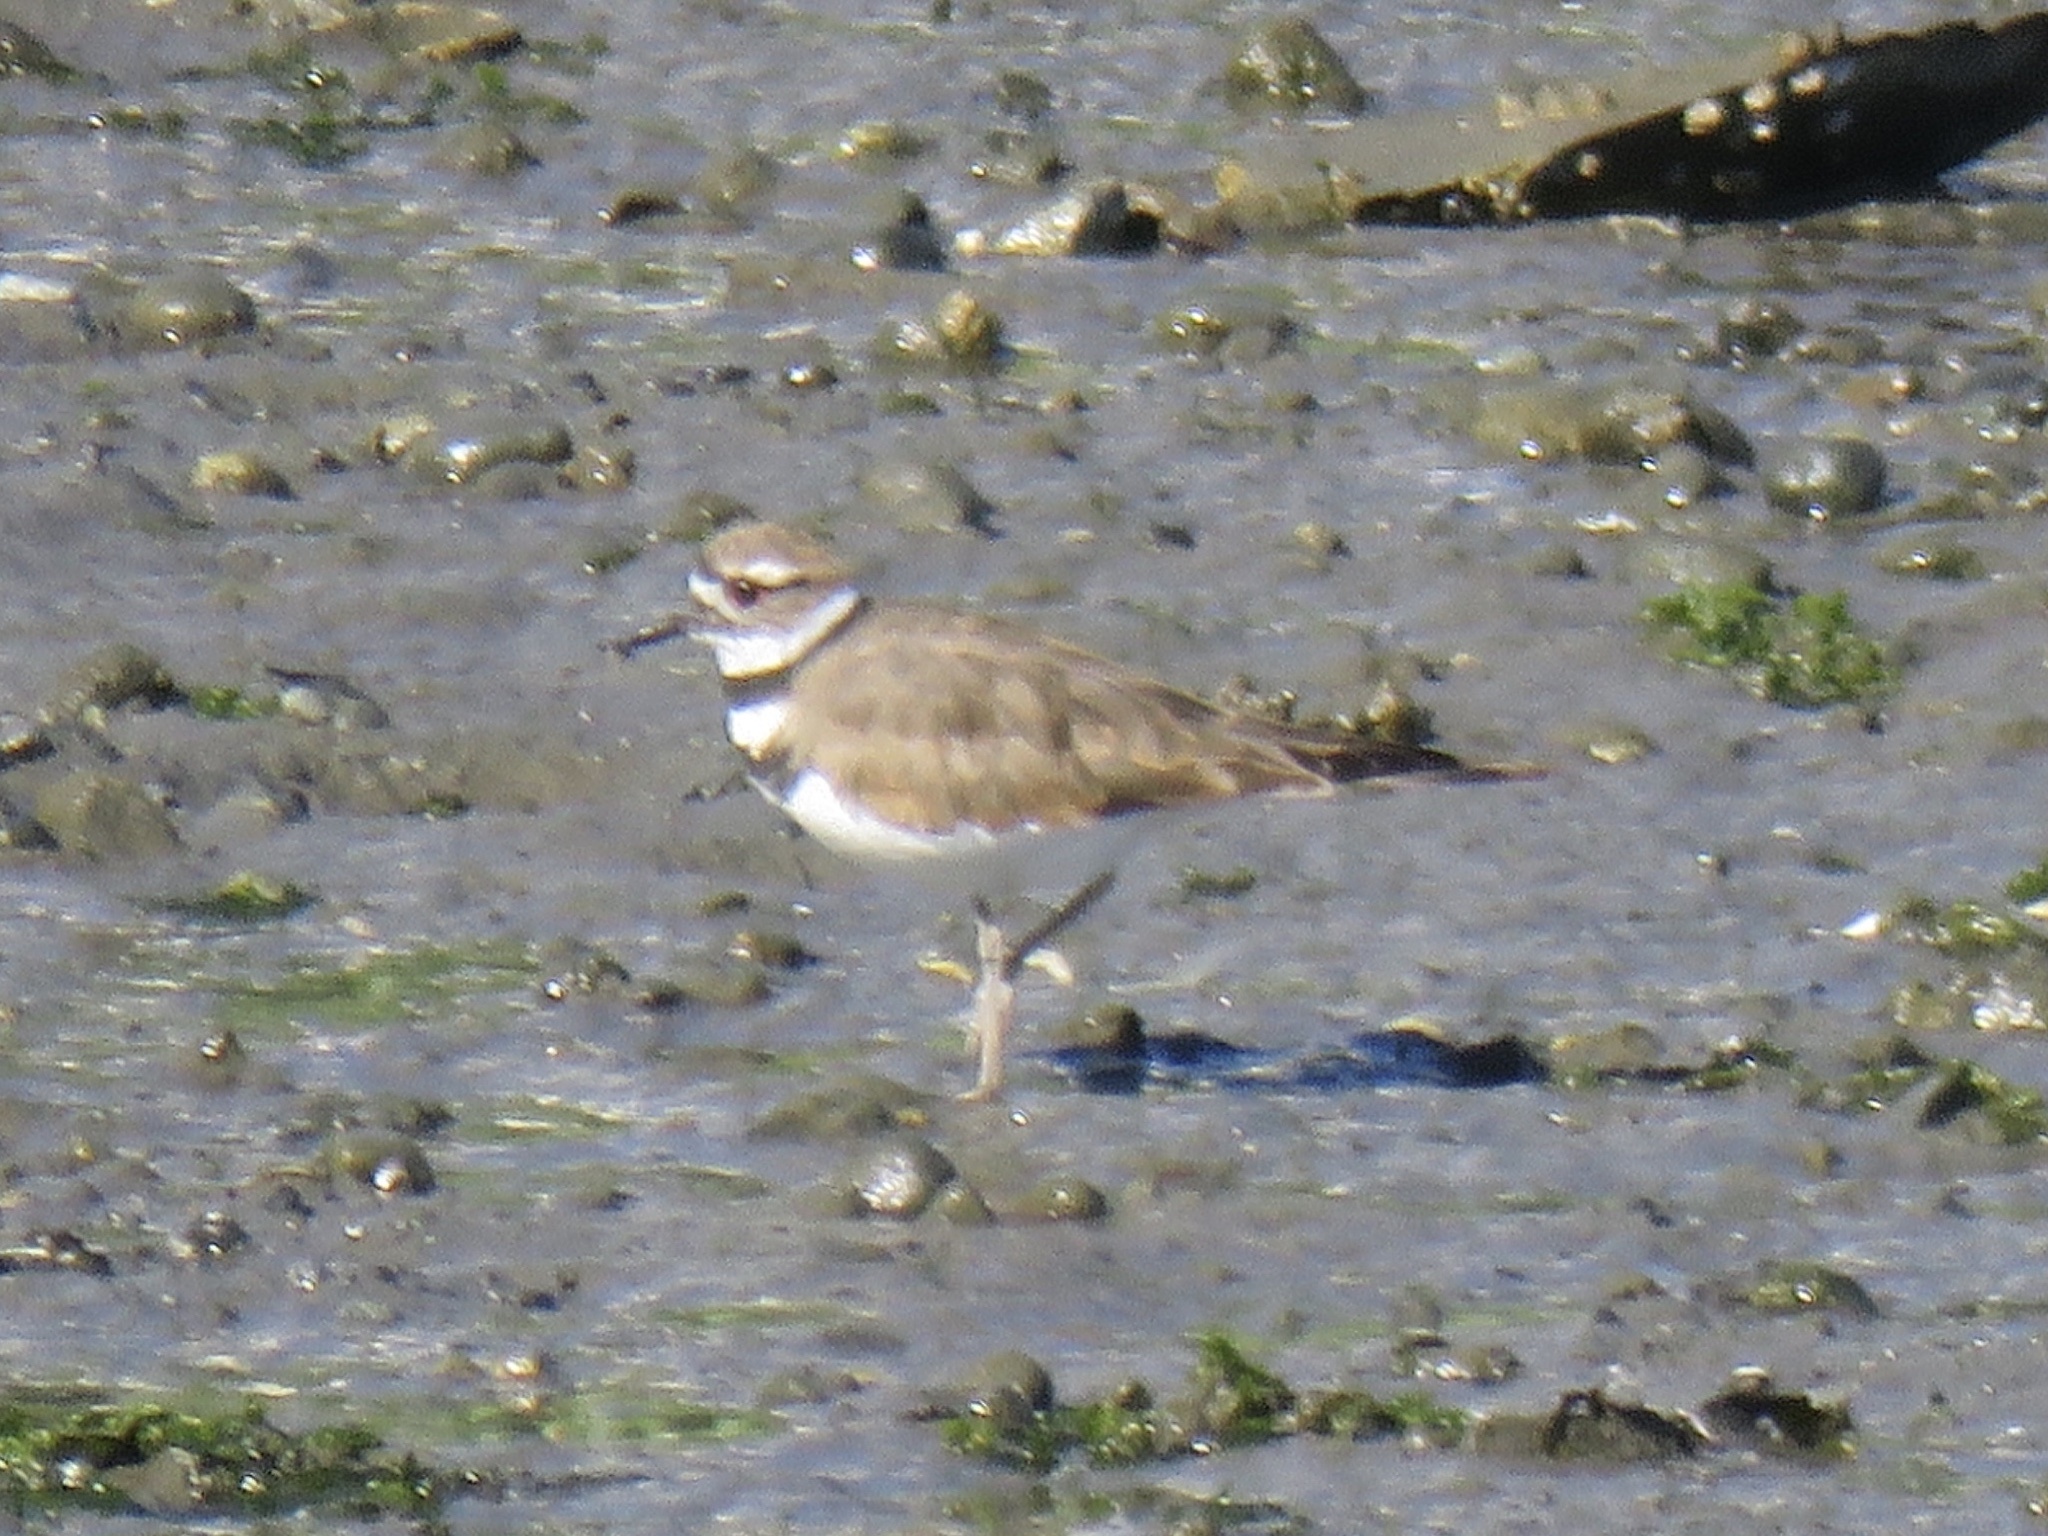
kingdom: Animalia
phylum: Chordata
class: Aves
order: Charadriiformes
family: Charadriidae
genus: Charadrius
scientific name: Charadrius vociferus
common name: Killdeer
